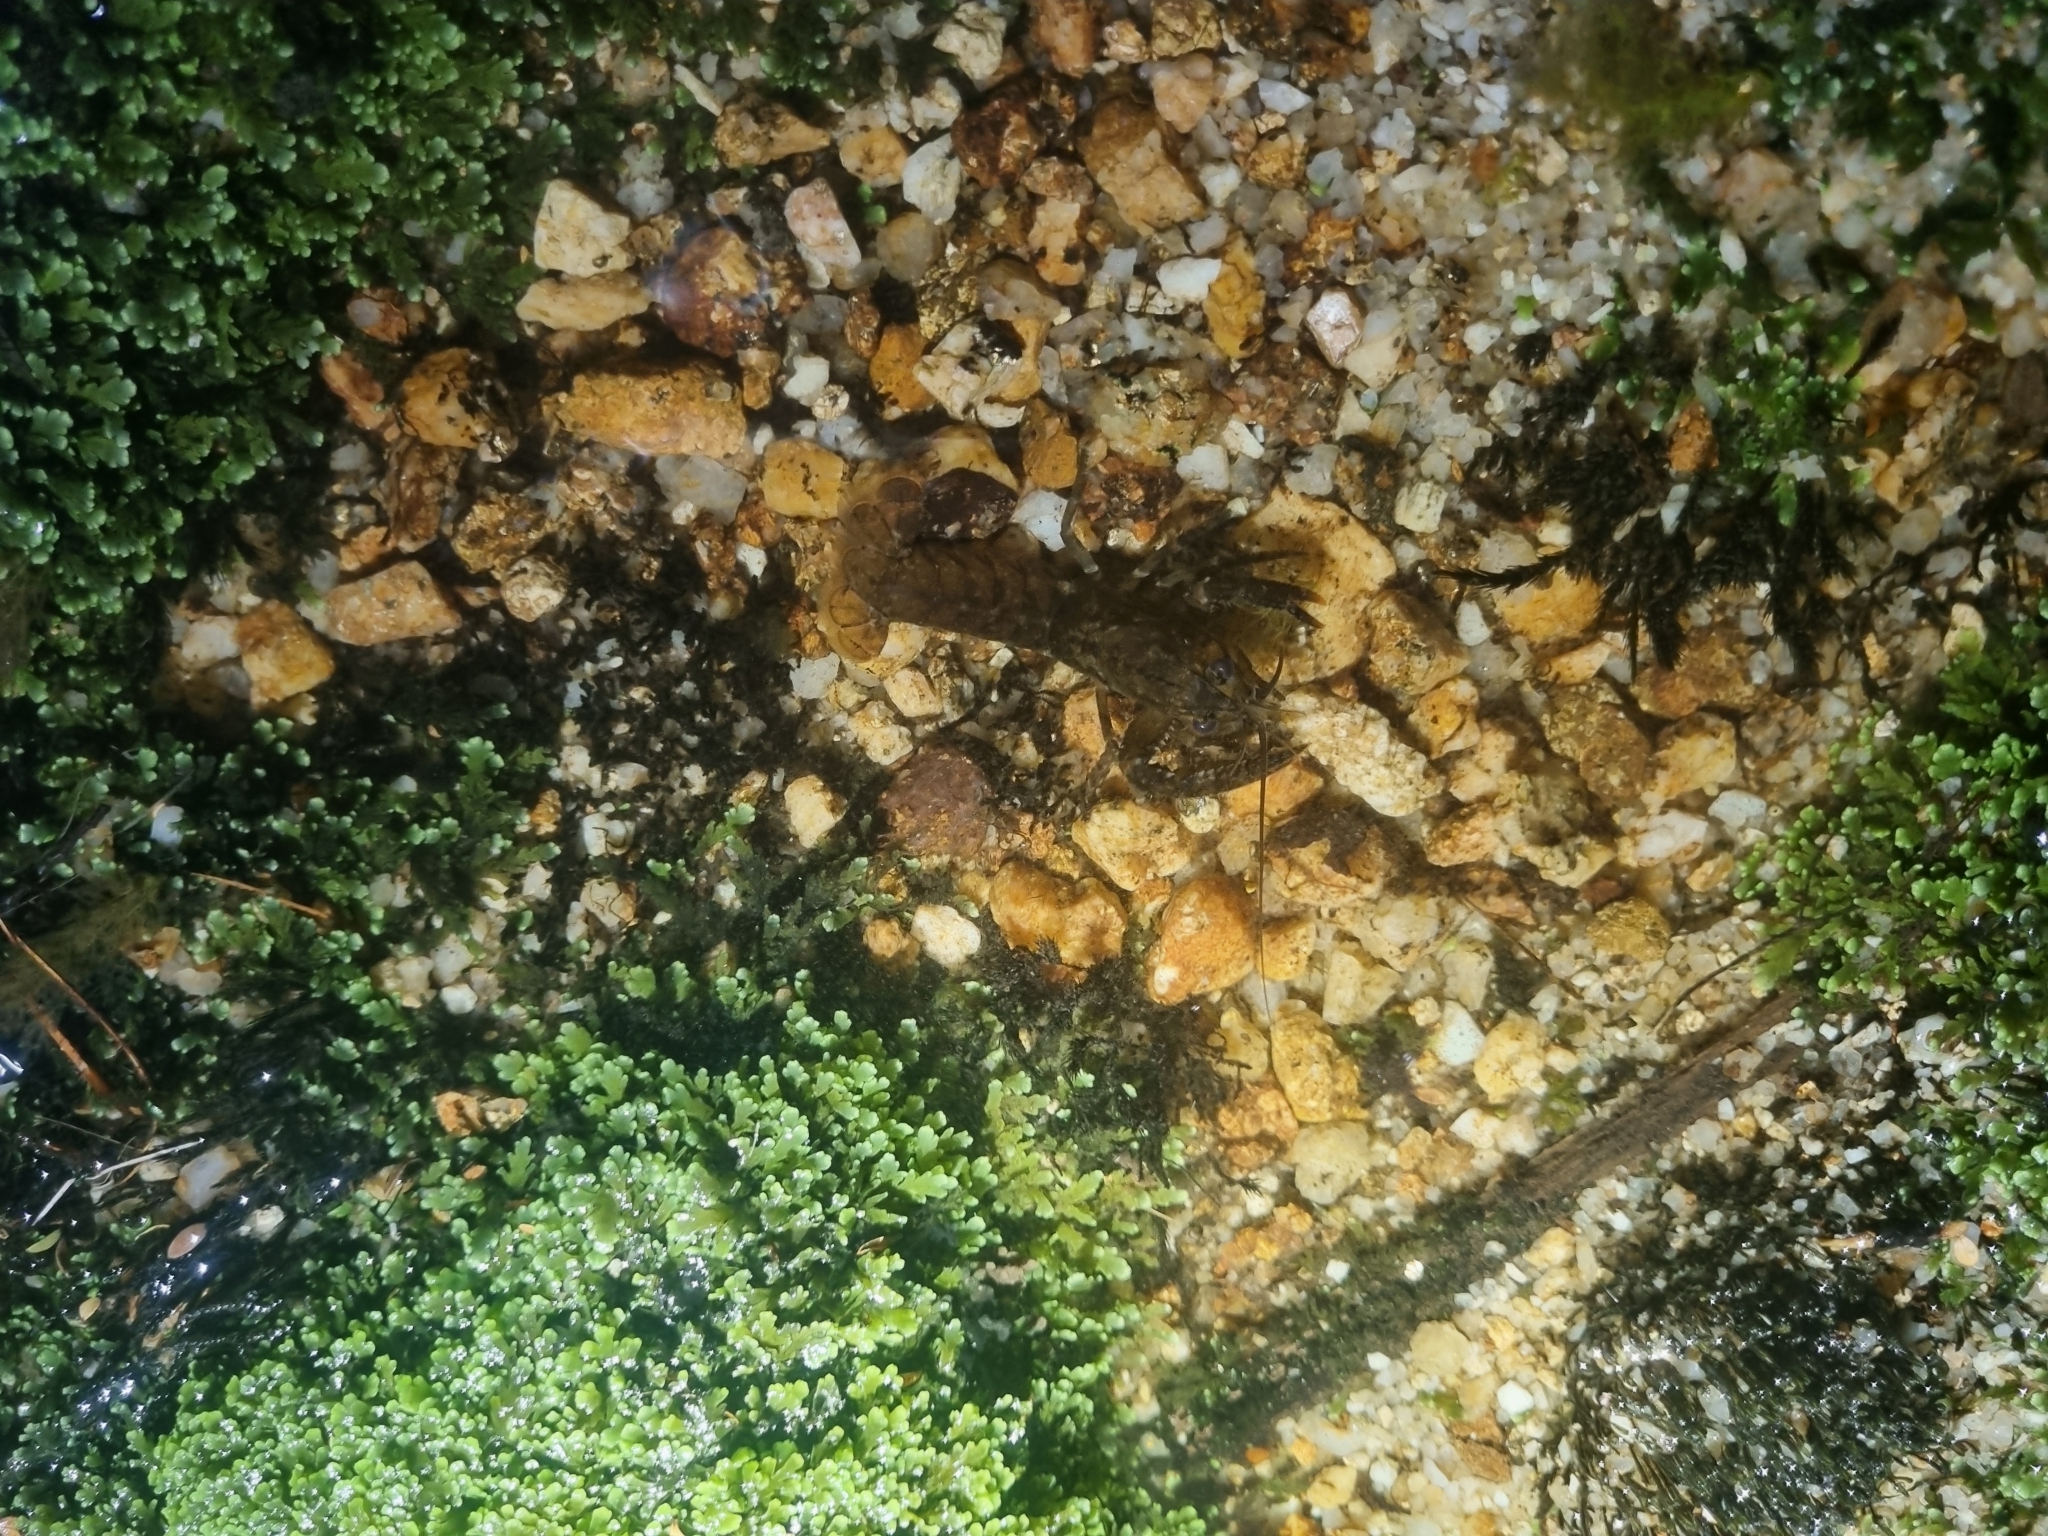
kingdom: Animalia
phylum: Arthropoda
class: Malacostraca
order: Decapoda
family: Parastacidae
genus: Paranephrops
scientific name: Paranephrops planifrons
